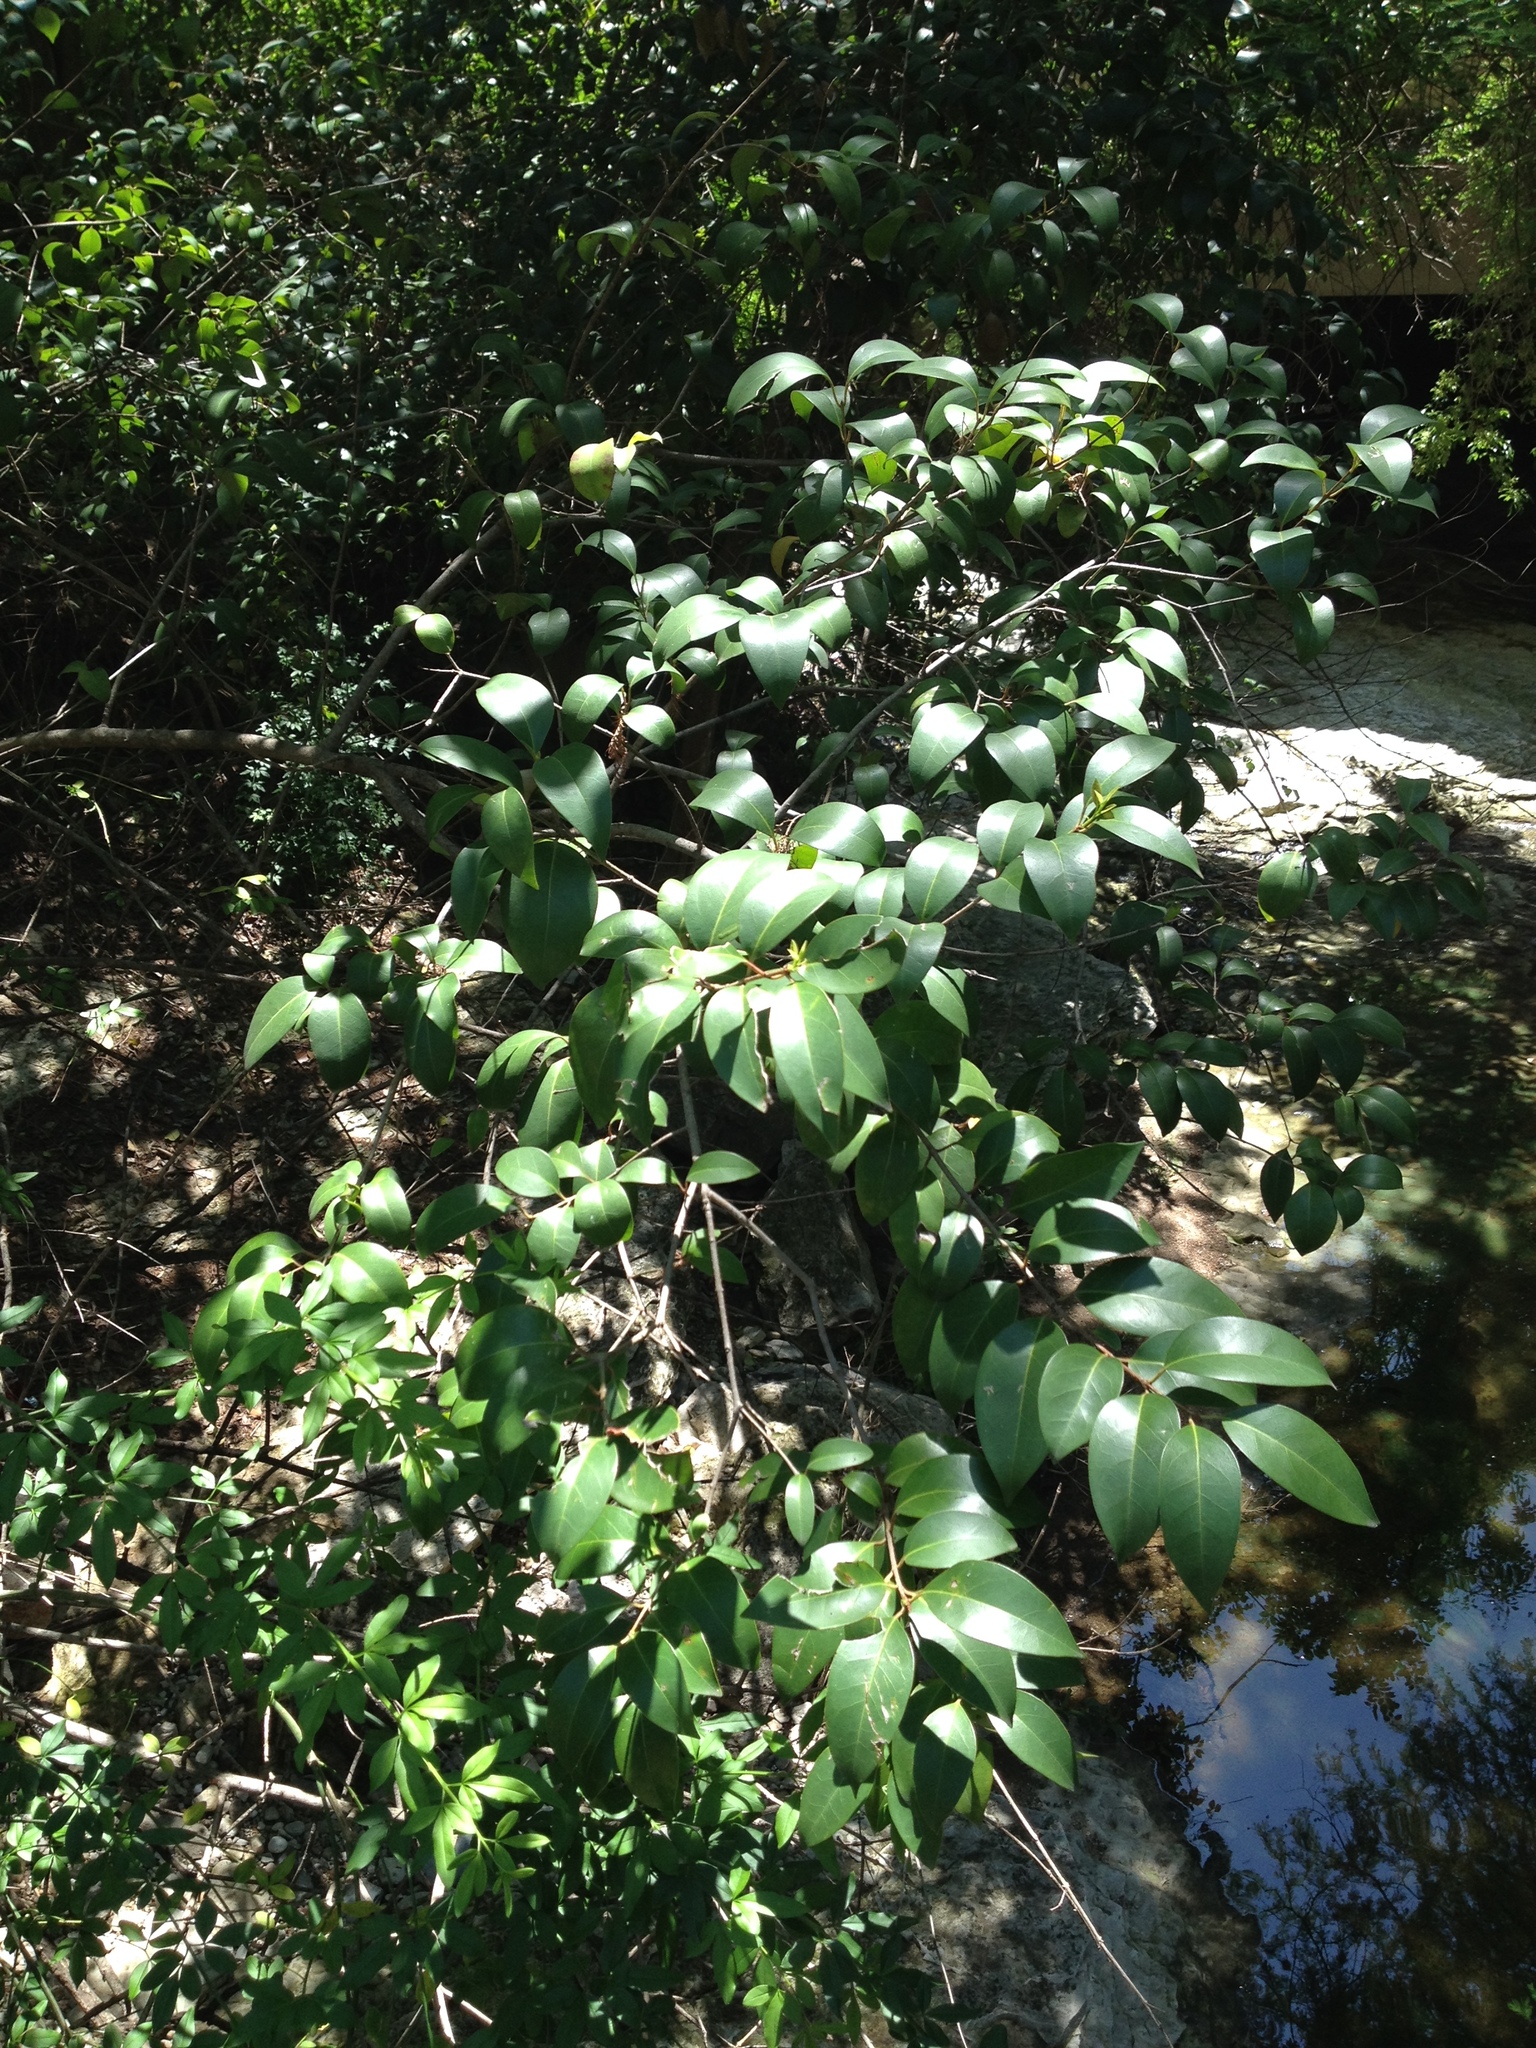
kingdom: Plantae
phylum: Tracheophyta
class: Magnoliopsida
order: Lamiales
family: Oleaceae
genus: Ligustrum
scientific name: Ligustrum lucidum
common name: Glossy privet
